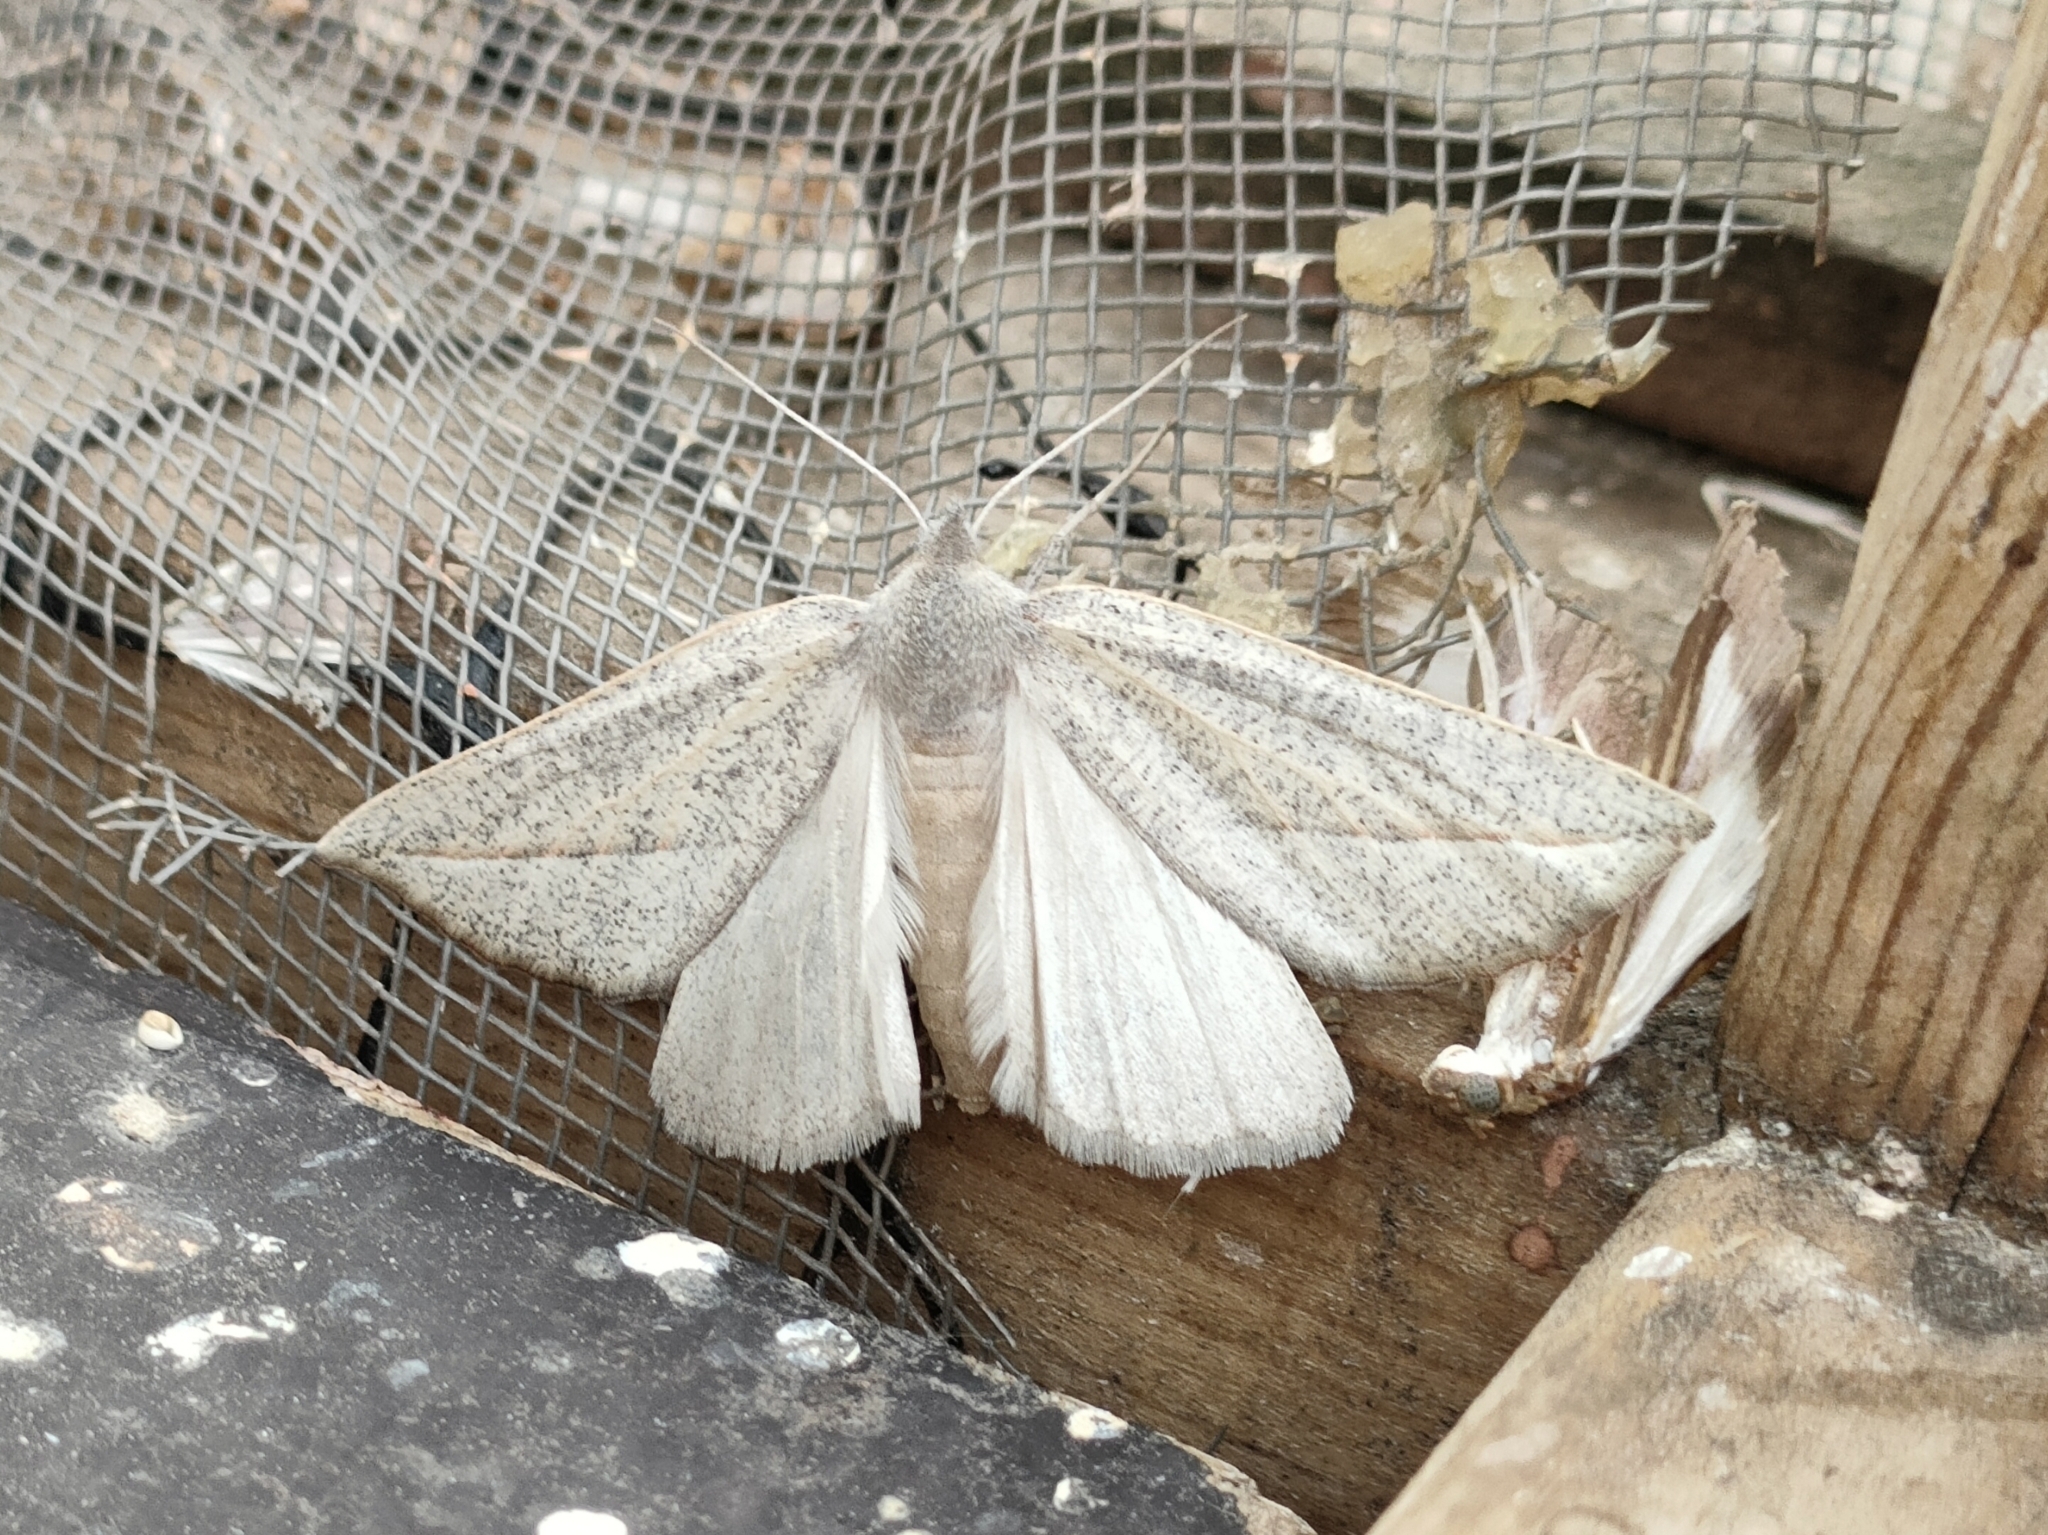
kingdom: Animalia
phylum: Arthropoda
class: Insecta
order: Lepidoptera
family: Geometridae
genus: Compsoptera
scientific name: Compsoptera opacaria
